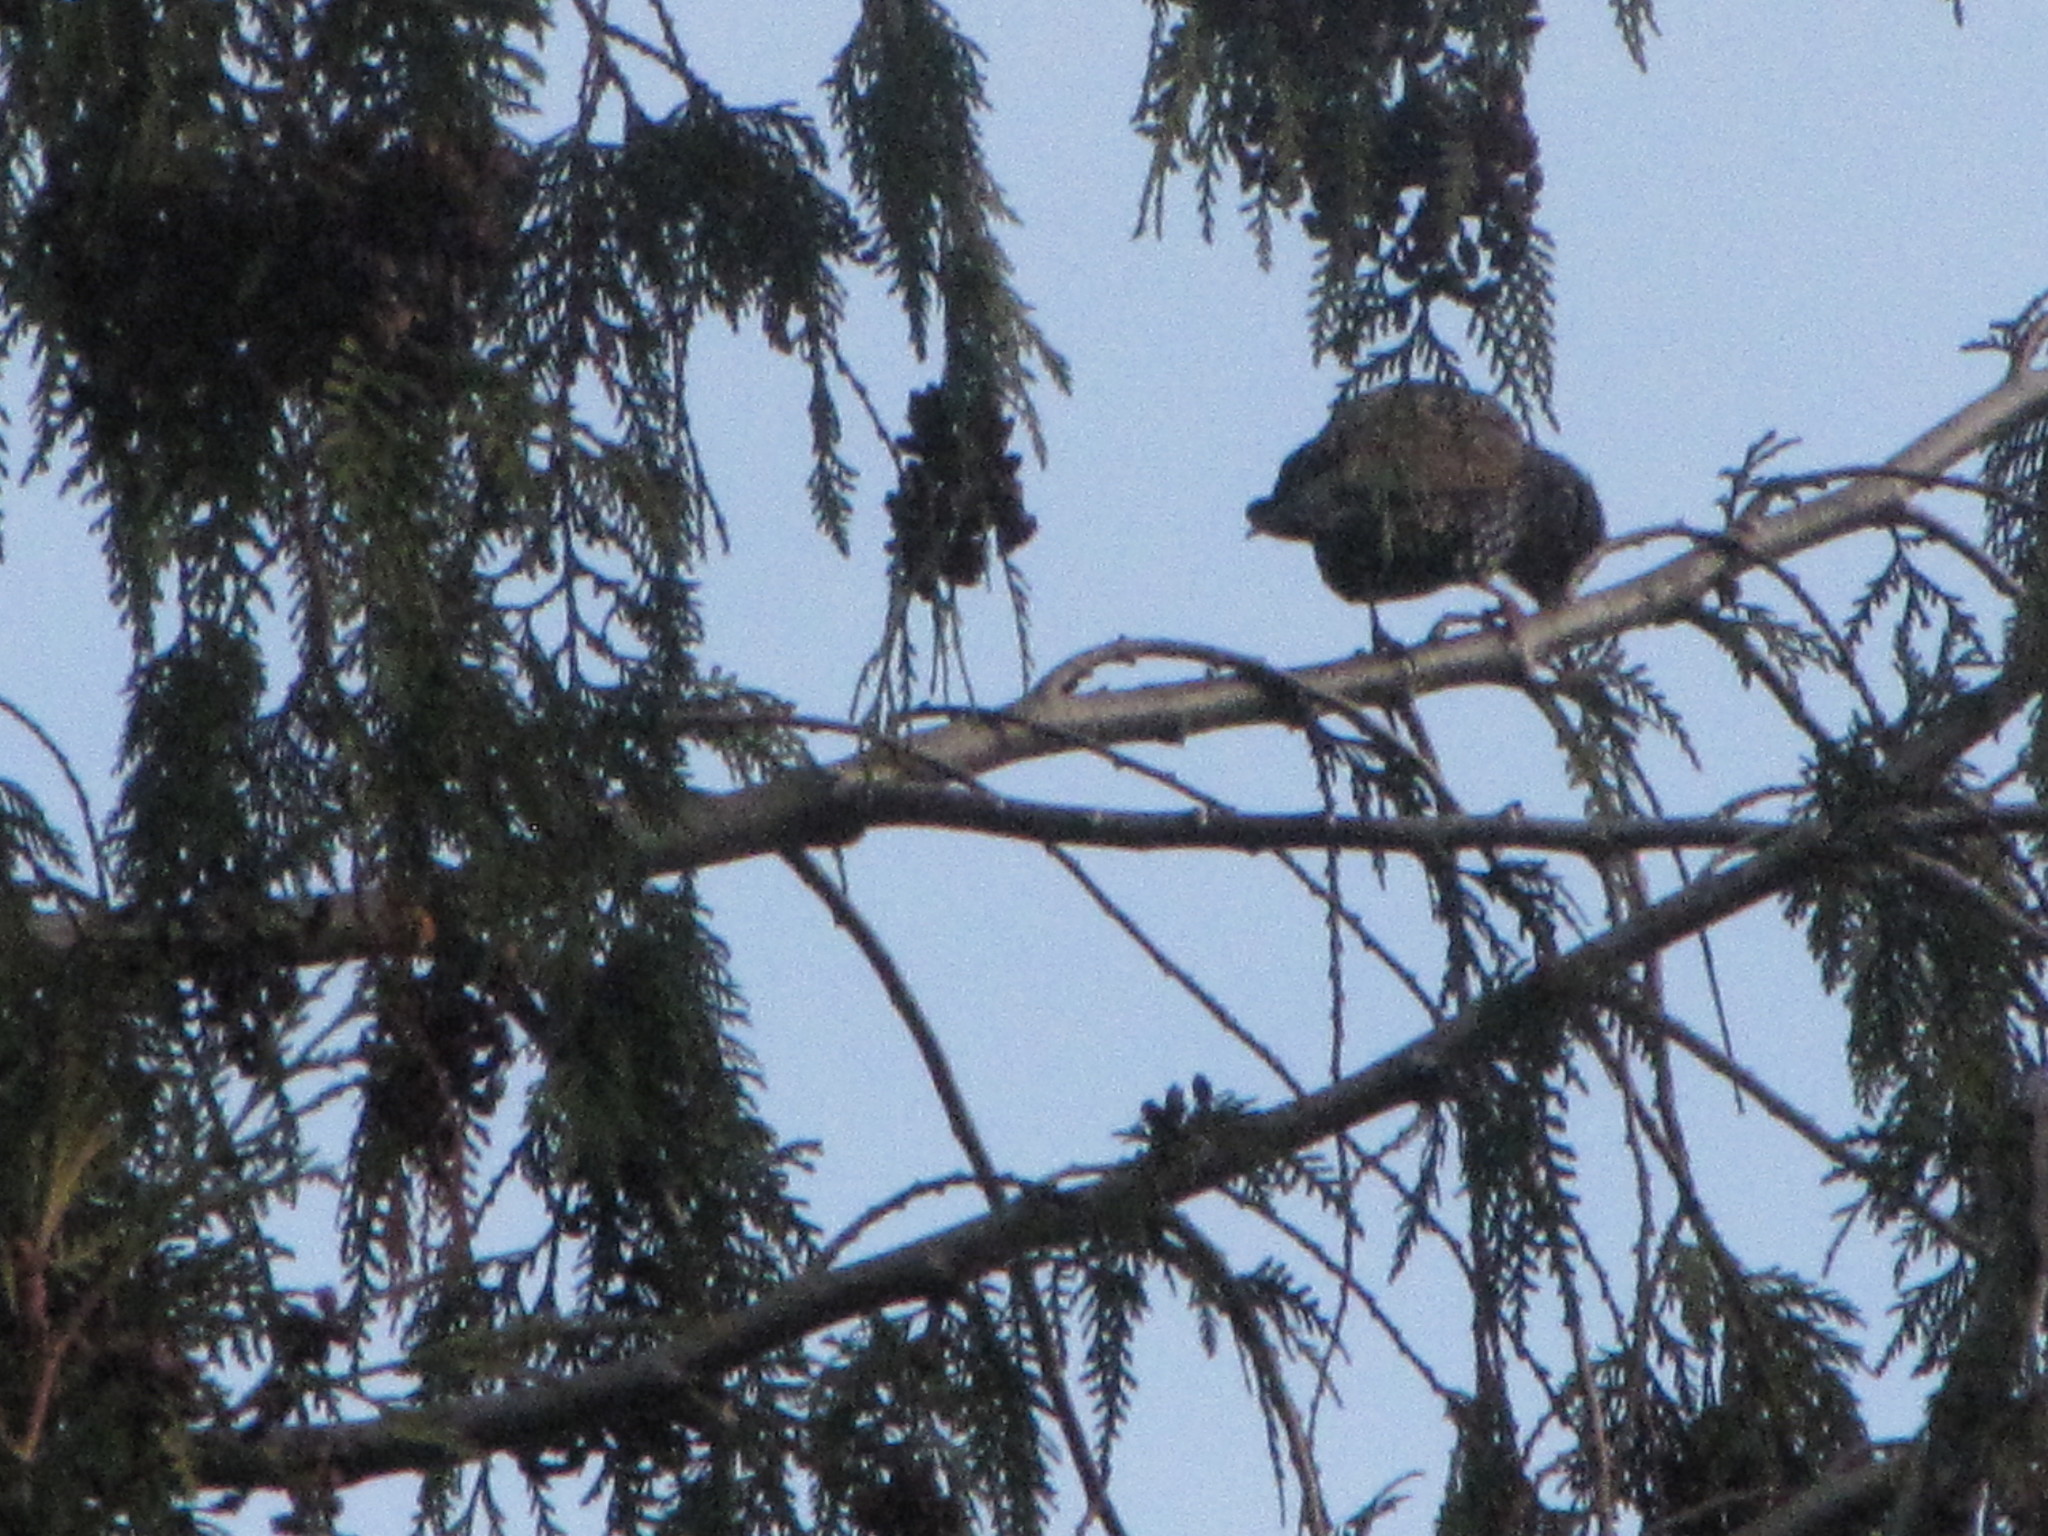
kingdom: Animalia
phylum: Chordata
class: Aves
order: Passeriformes
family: Sturnidae
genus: Sturnus
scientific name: Sturnus vulgaris
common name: Common starling
